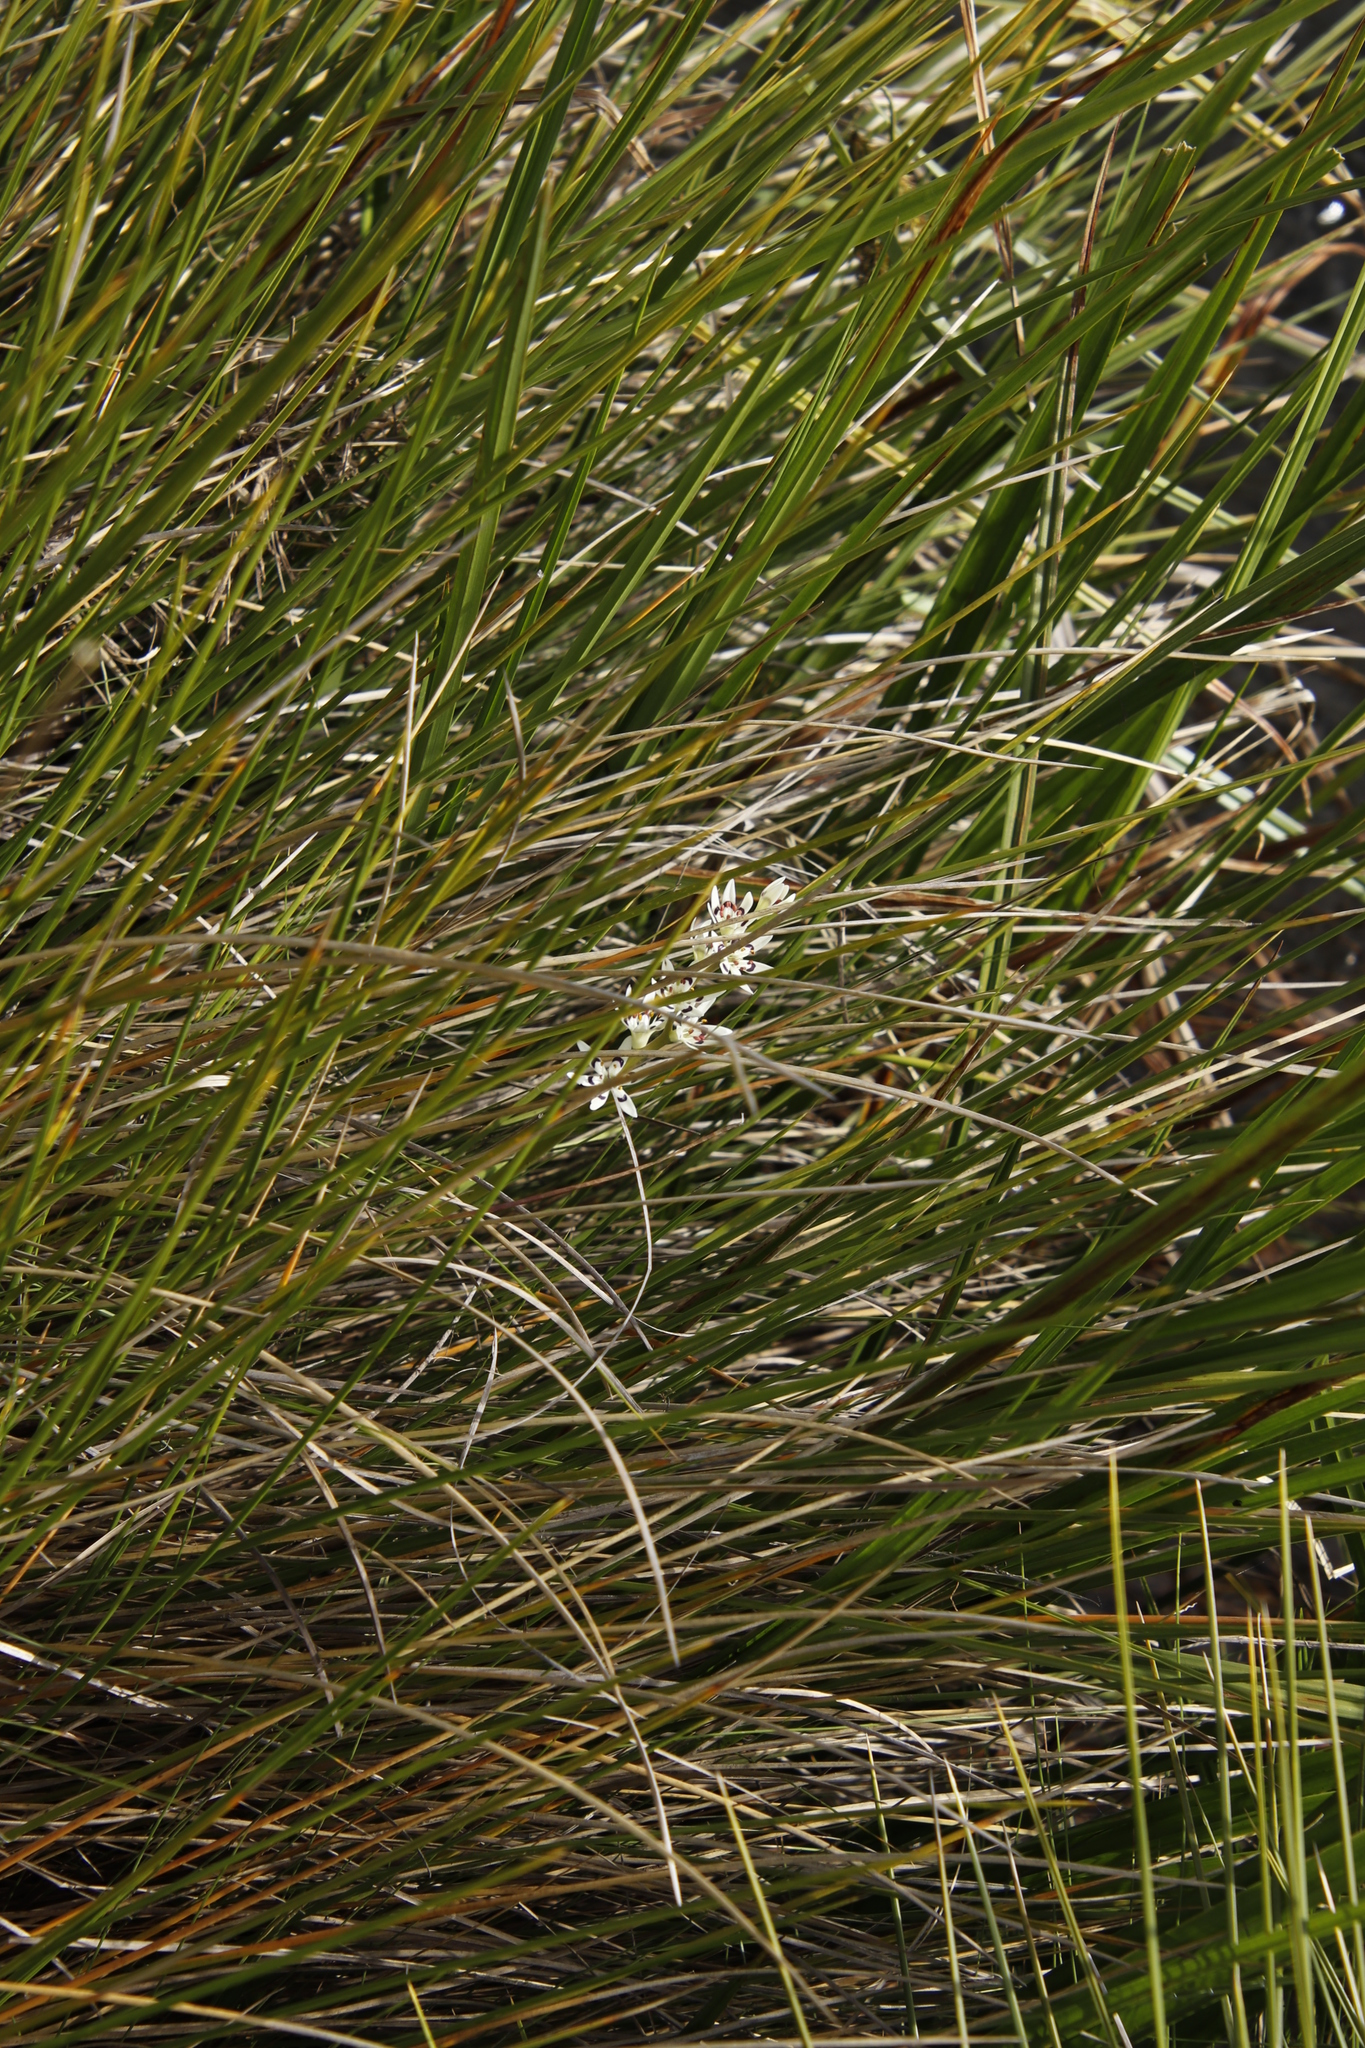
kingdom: Plantae
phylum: Tracheophyta
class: Liliopsida
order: Liliales
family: Colchicaceae
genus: Wurmbea
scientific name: Wurmbea elatior
